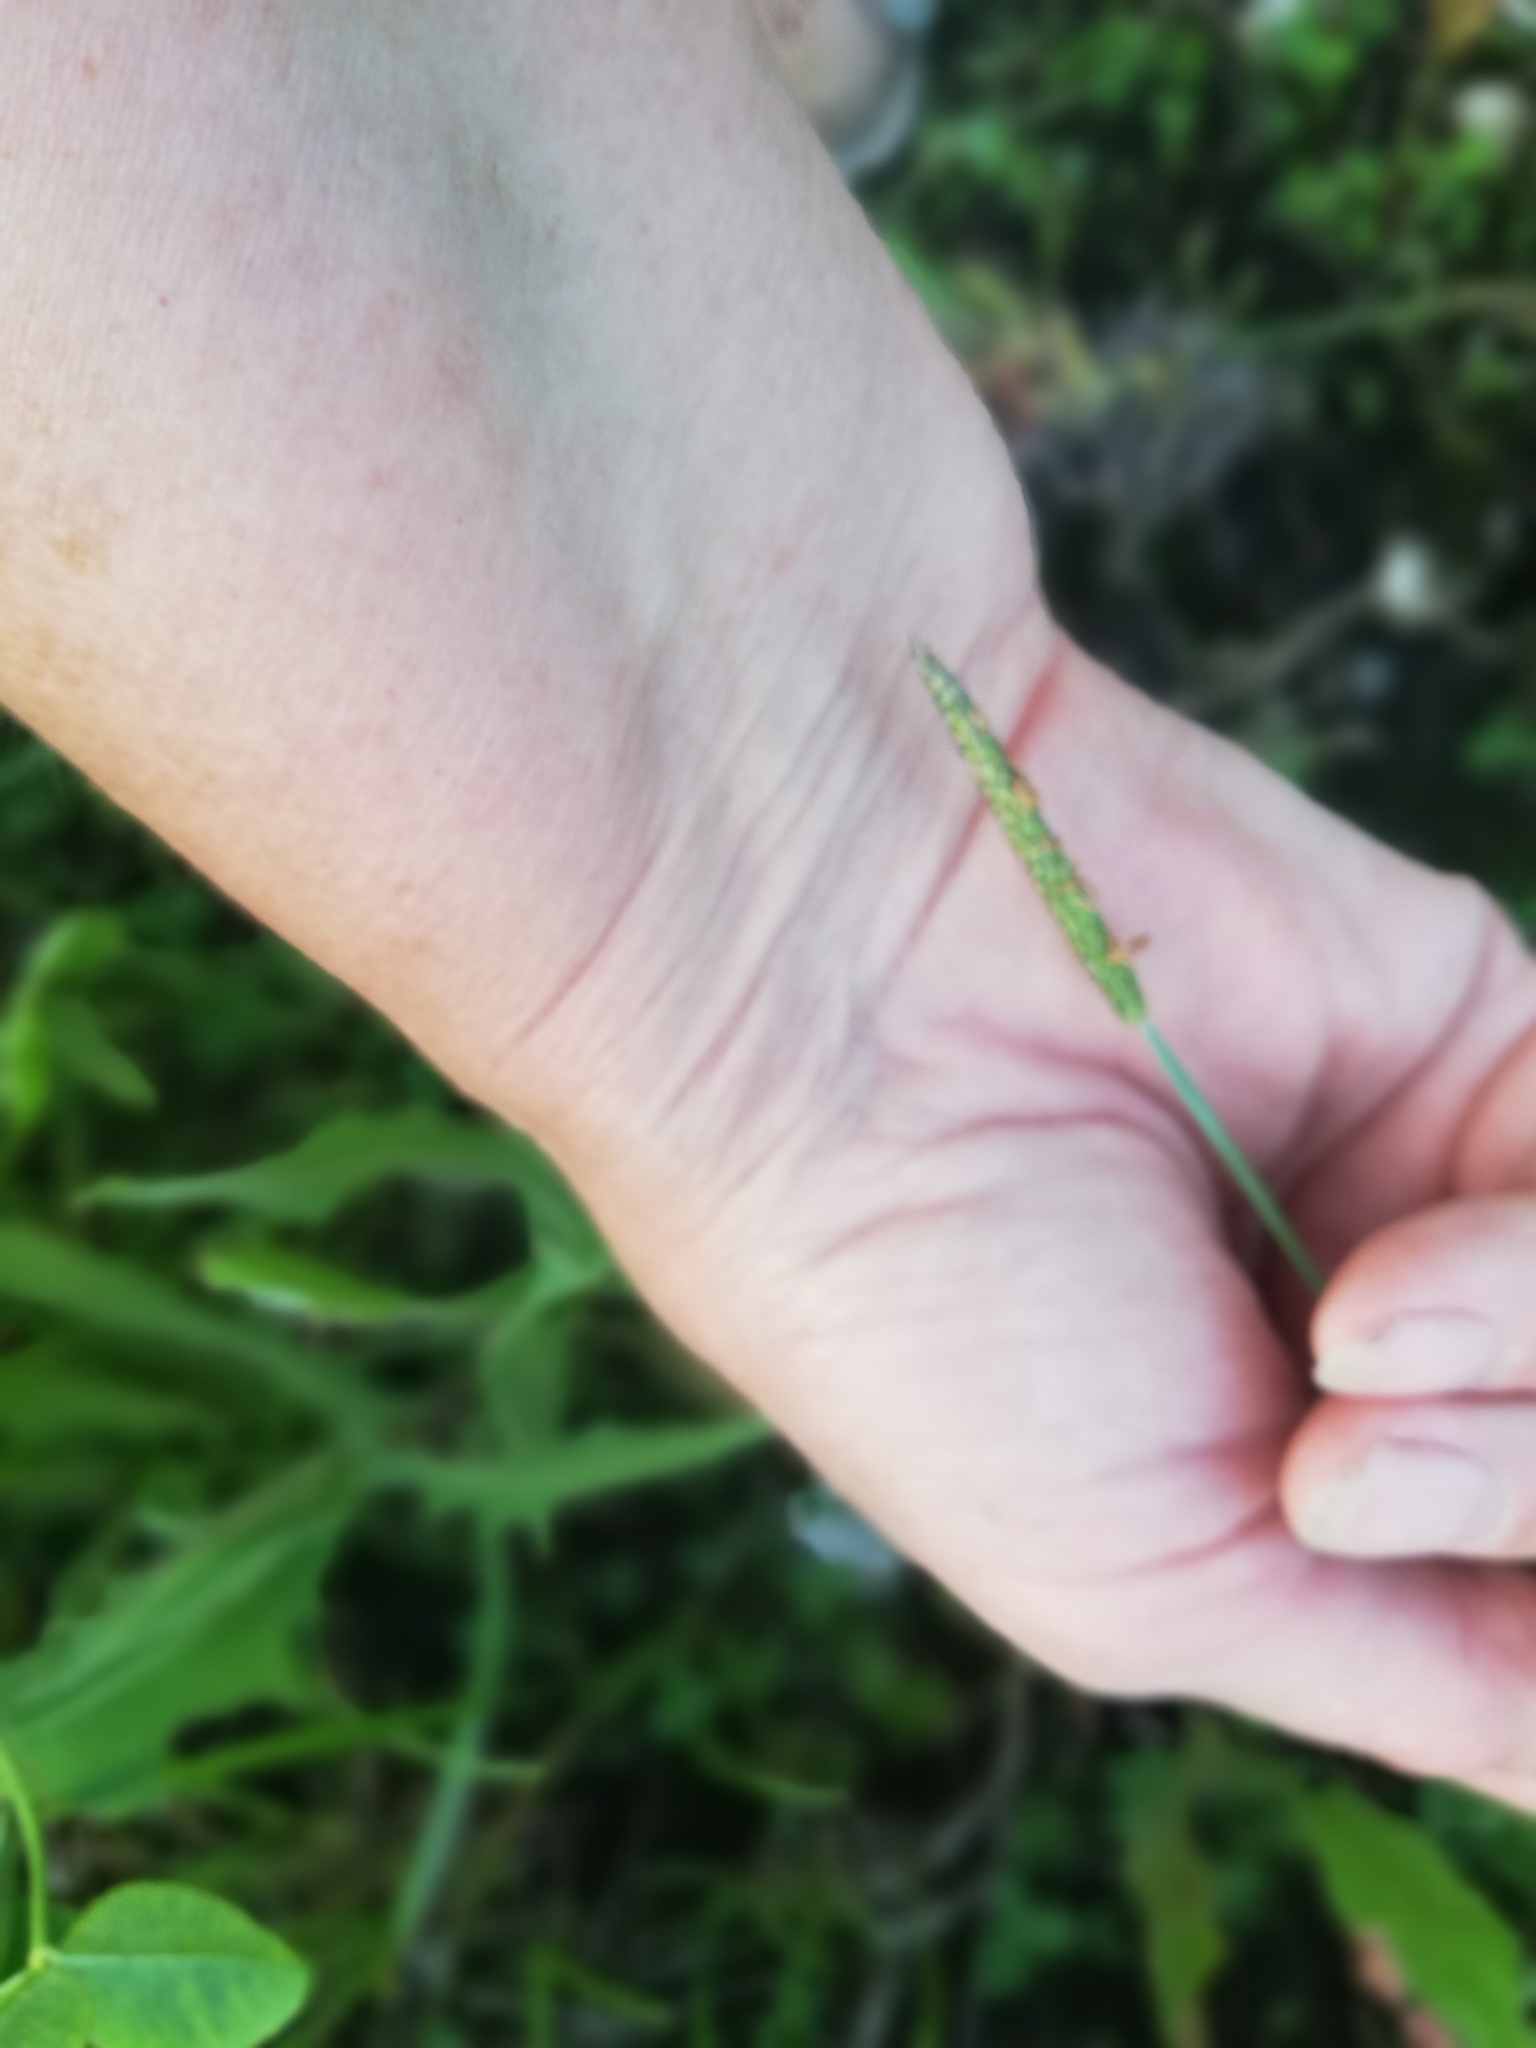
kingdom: Plantae
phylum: Tracheophyta
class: Liliopsida
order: Poales
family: Poaceae
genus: Alopecurus
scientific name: Alopecurus aequalis
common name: Orange foxtail
